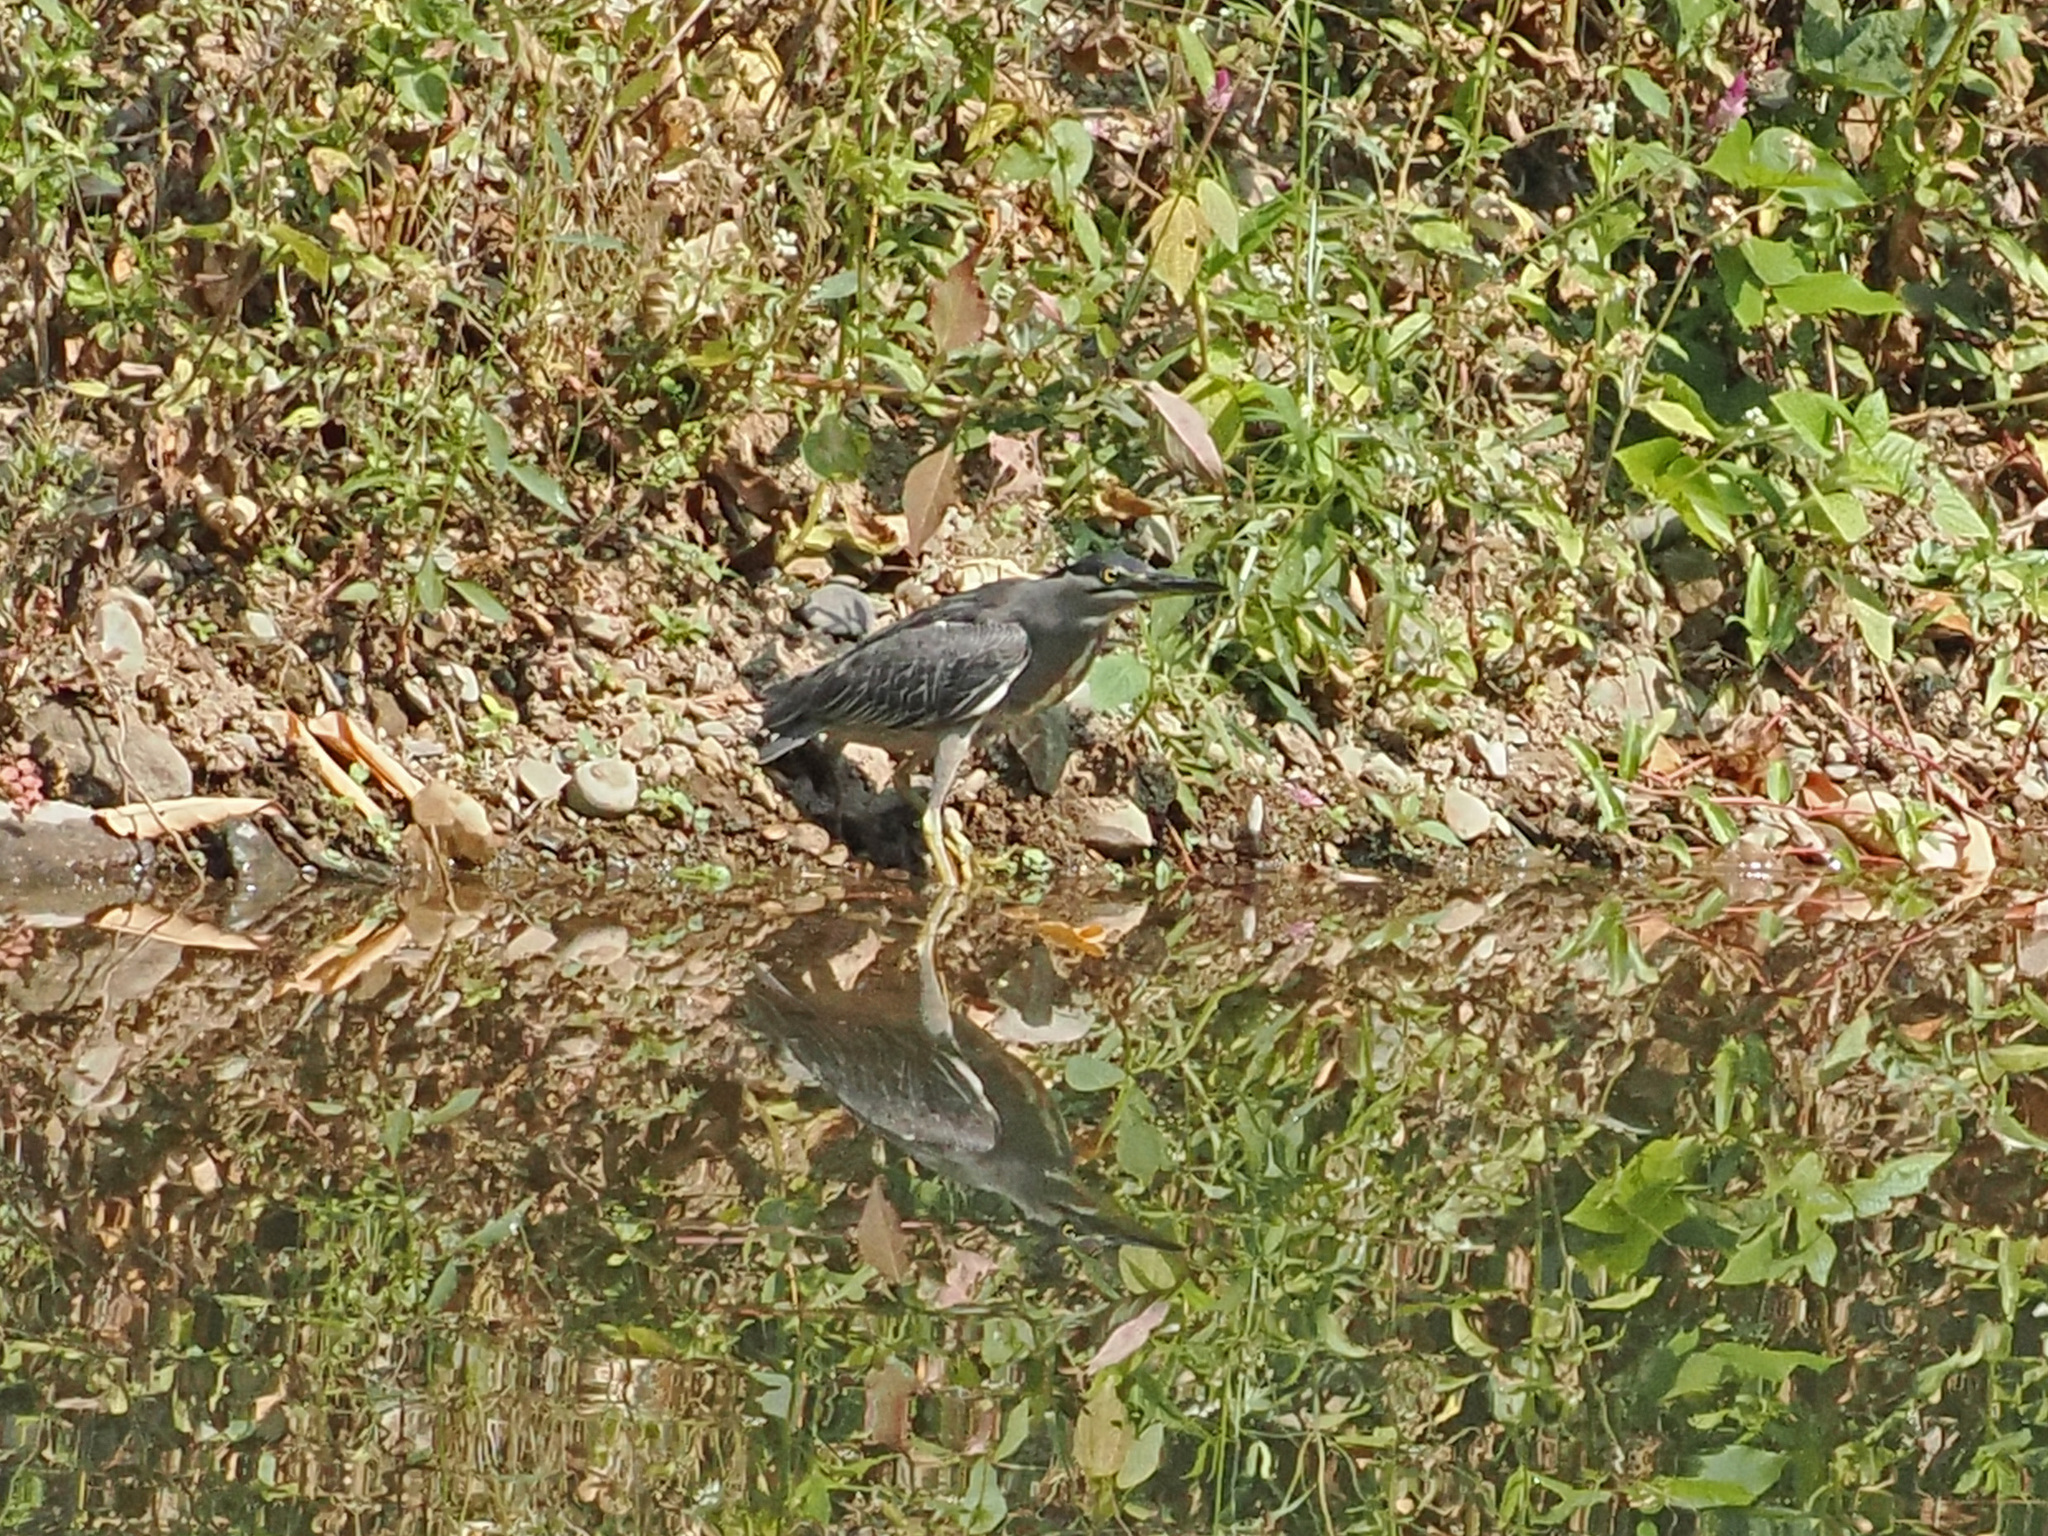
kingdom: Animalia
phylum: Chordata
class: Aves
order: Pelecaniformes
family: Ardeidae
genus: Butorides
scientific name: Butorides striata
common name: Striated heron
